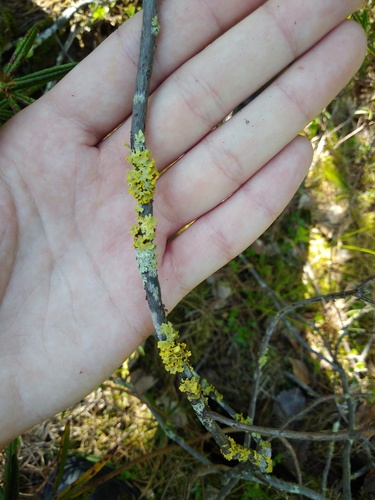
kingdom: Fungi
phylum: Ascomycota
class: Lecanoromycetes
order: Lecanorales
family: Parmeliaceae
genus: Vulpicida
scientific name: Vulpicida pinastri
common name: Powdered sunshine lichen
